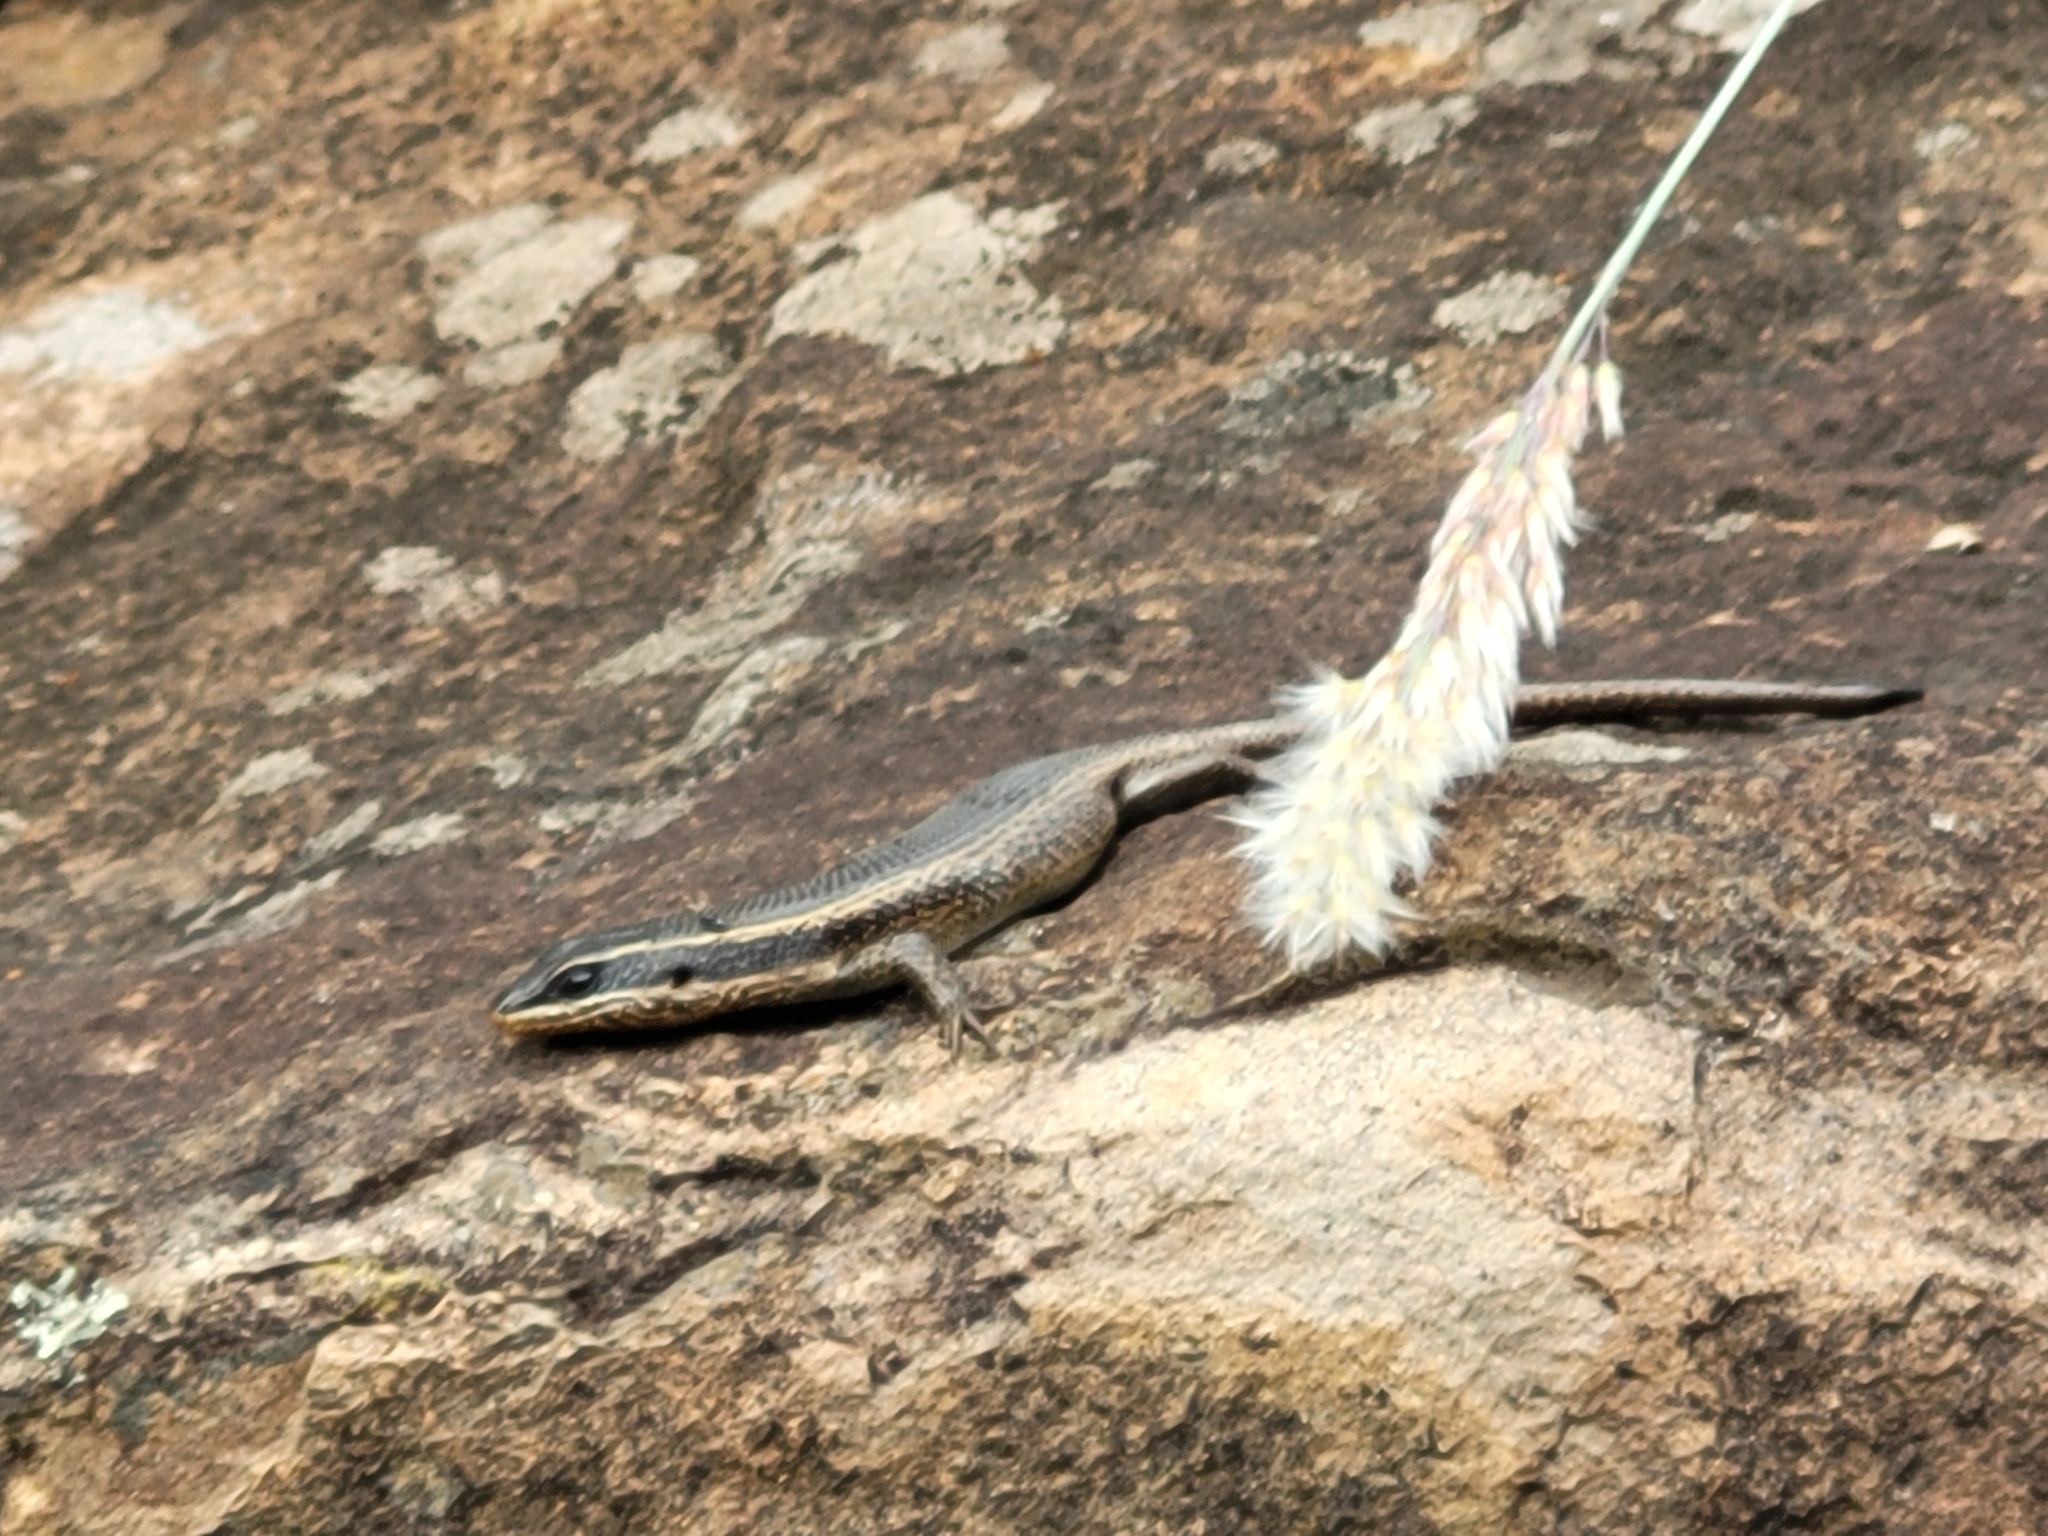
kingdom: Animalia
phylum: Chordata
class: Squamata
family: Scincidae
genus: Trachylepis
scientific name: Trachylepis punctatissima
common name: Montane speckled skink
